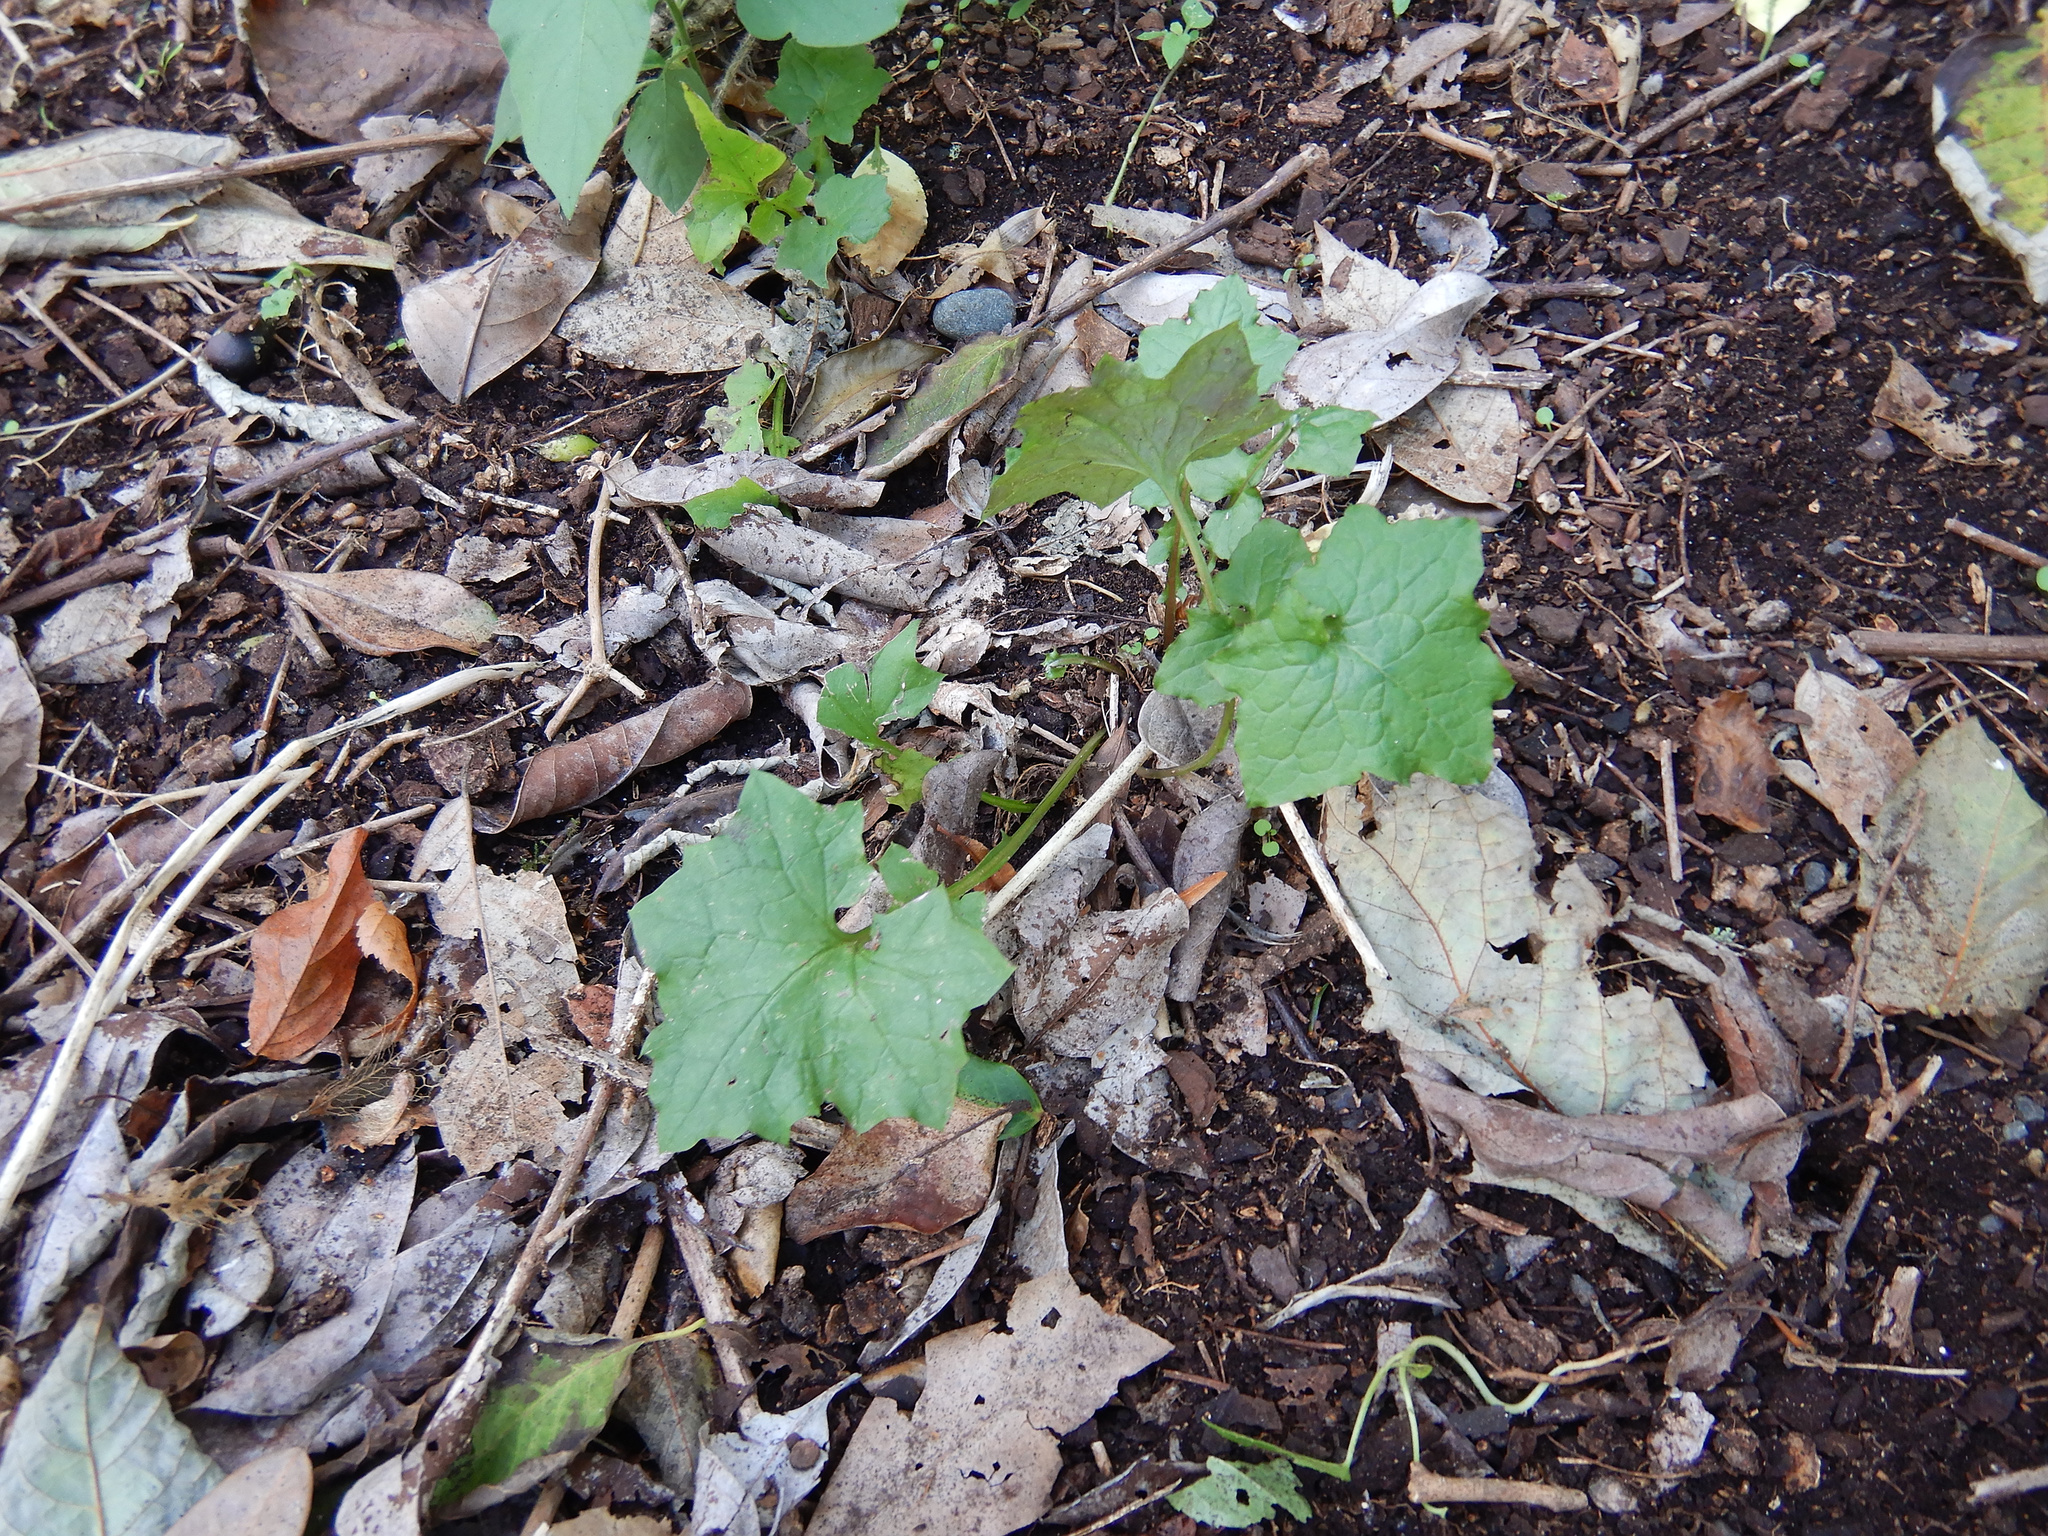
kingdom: Plantae
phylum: Tracheophyta
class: Magnoliopsida
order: Asterales
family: Asteraceae
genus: Mycelis
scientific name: Mycelis muralis
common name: Wall lettuce
